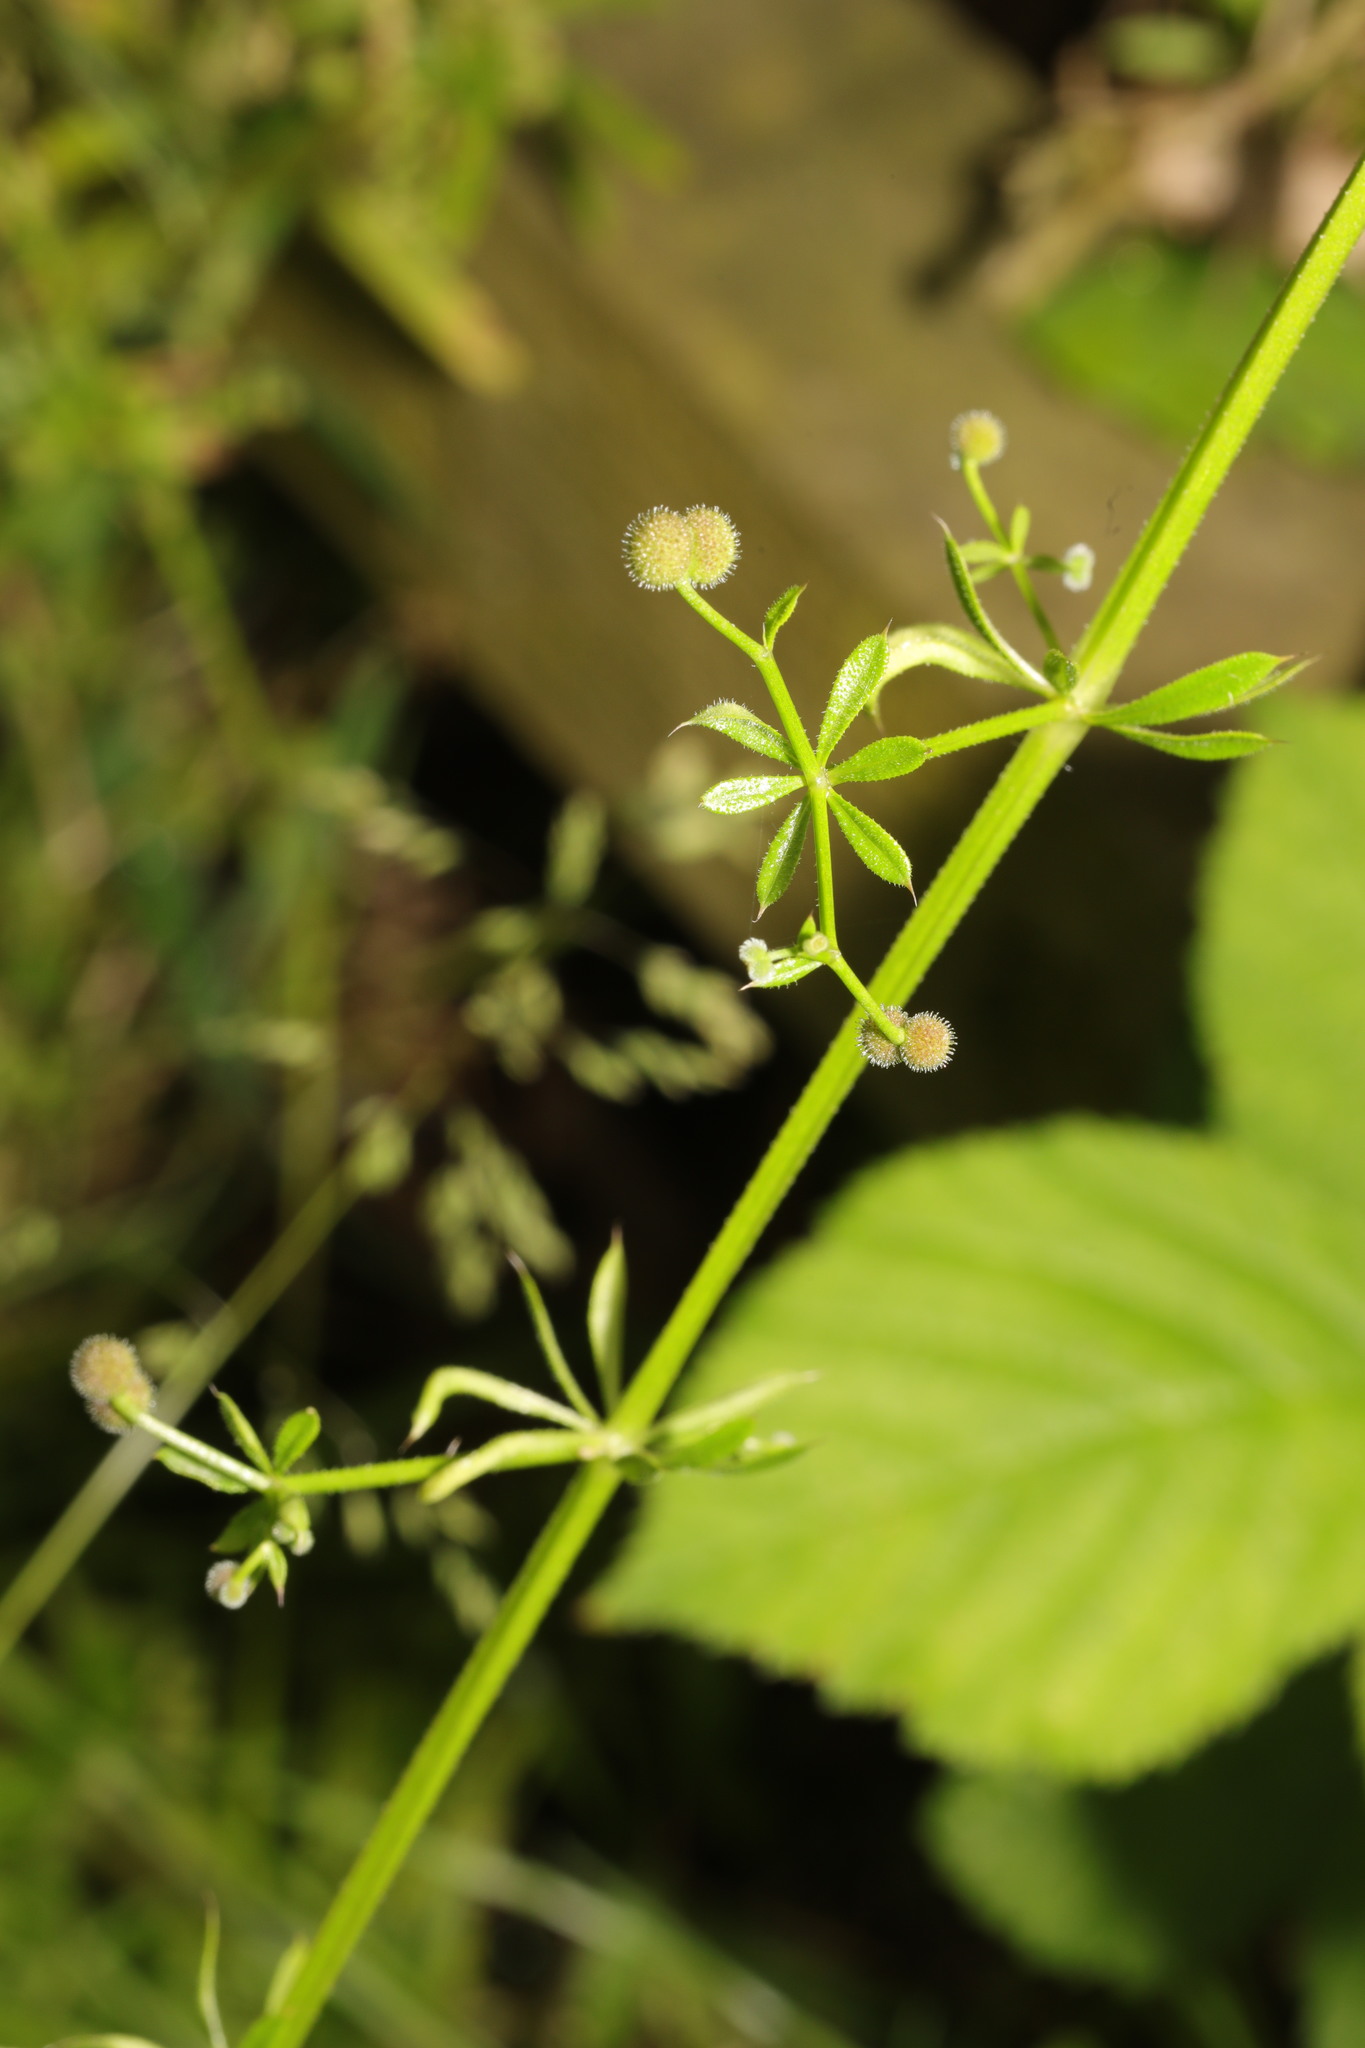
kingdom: Plantae
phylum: Tracheophyta
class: Magnoliopsida
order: Gentianales
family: Rubiaceae
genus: Galium
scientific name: Galium aparine
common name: Cleavers
